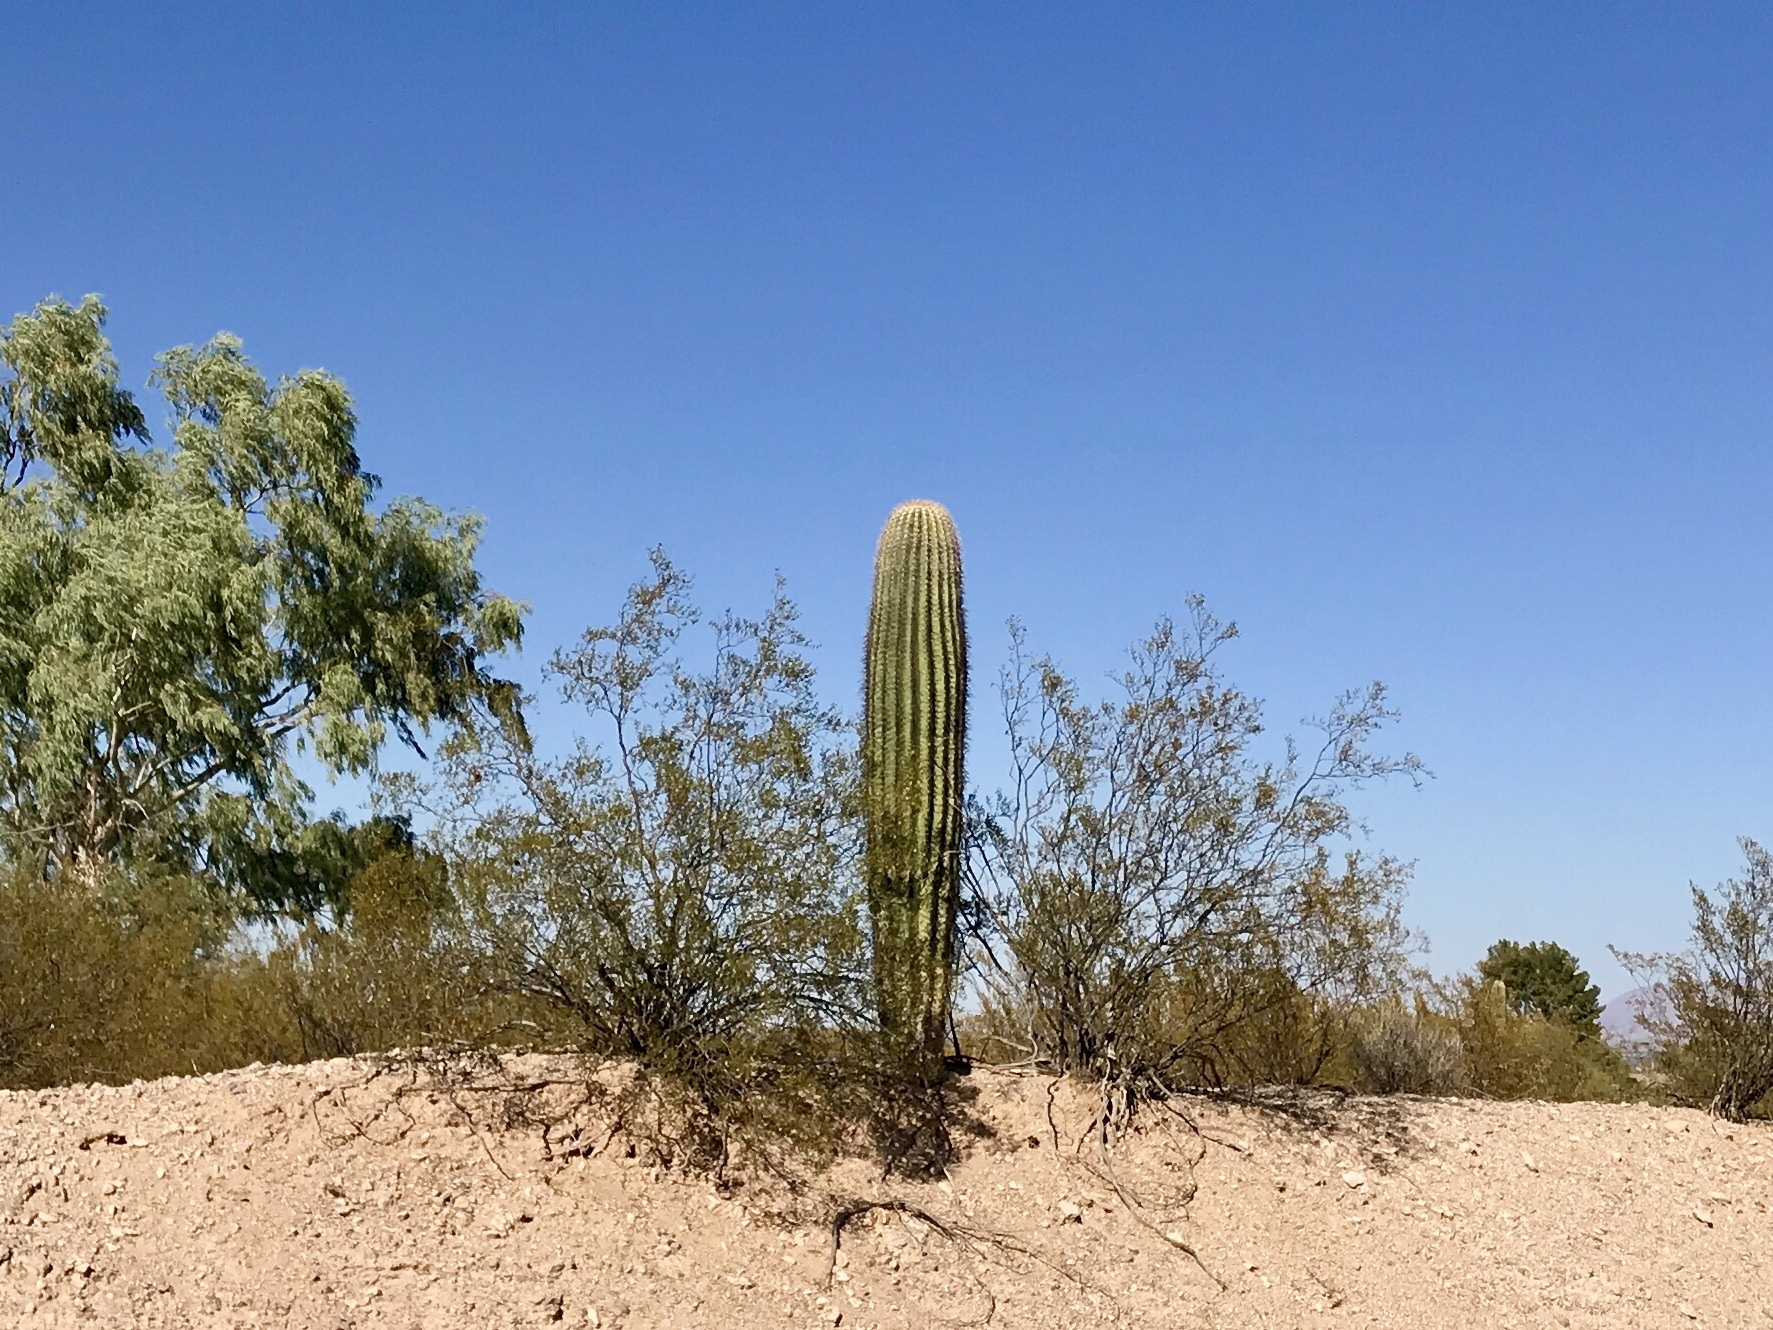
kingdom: Plantae
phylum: Tracheophyta
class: Magnoliopsida
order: Caryophyllales
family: Cactaceae
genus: Carnegiea
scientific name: Carnegiea gigantea
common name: Saguaro
